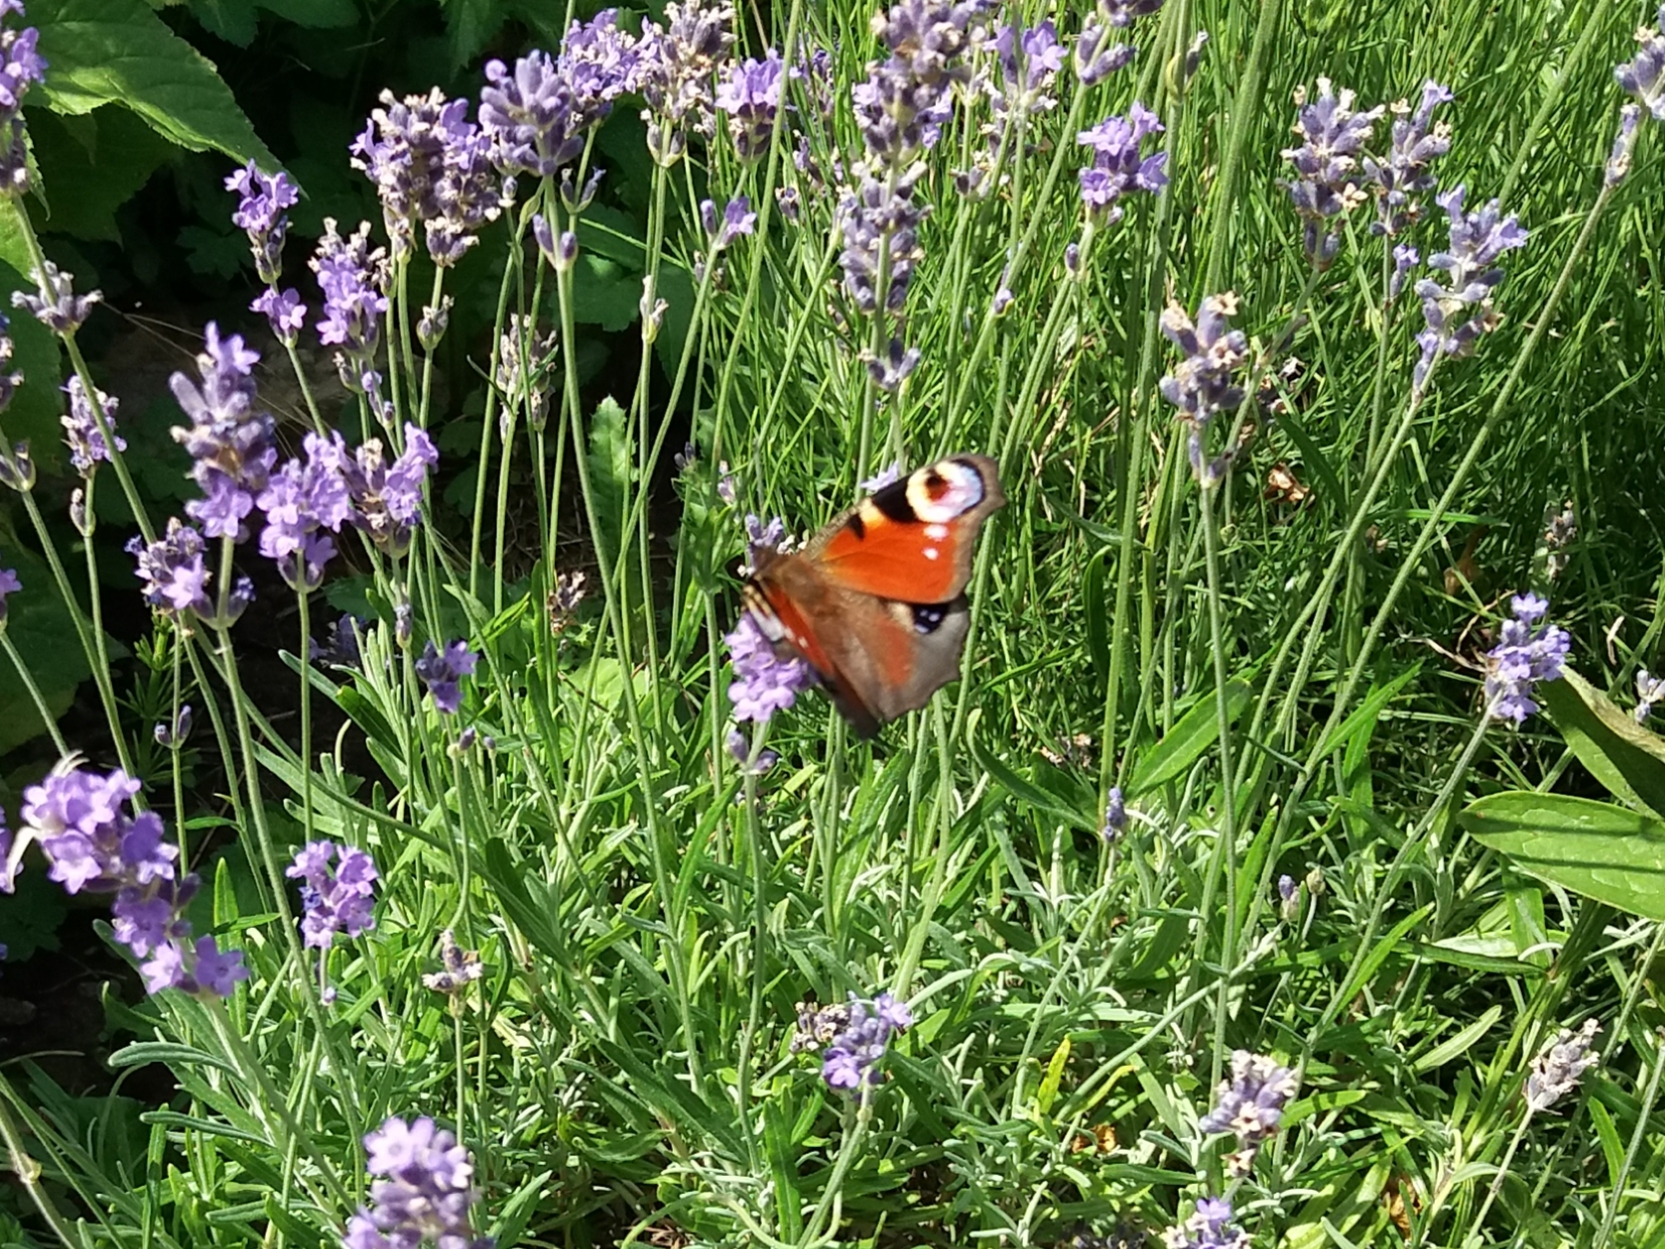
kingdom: Animalia
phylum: Arthropoda
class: Insecta
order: Lepidoptera
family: Nymphalidae
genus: Aglais
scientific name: Aglais io
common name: Peacock
